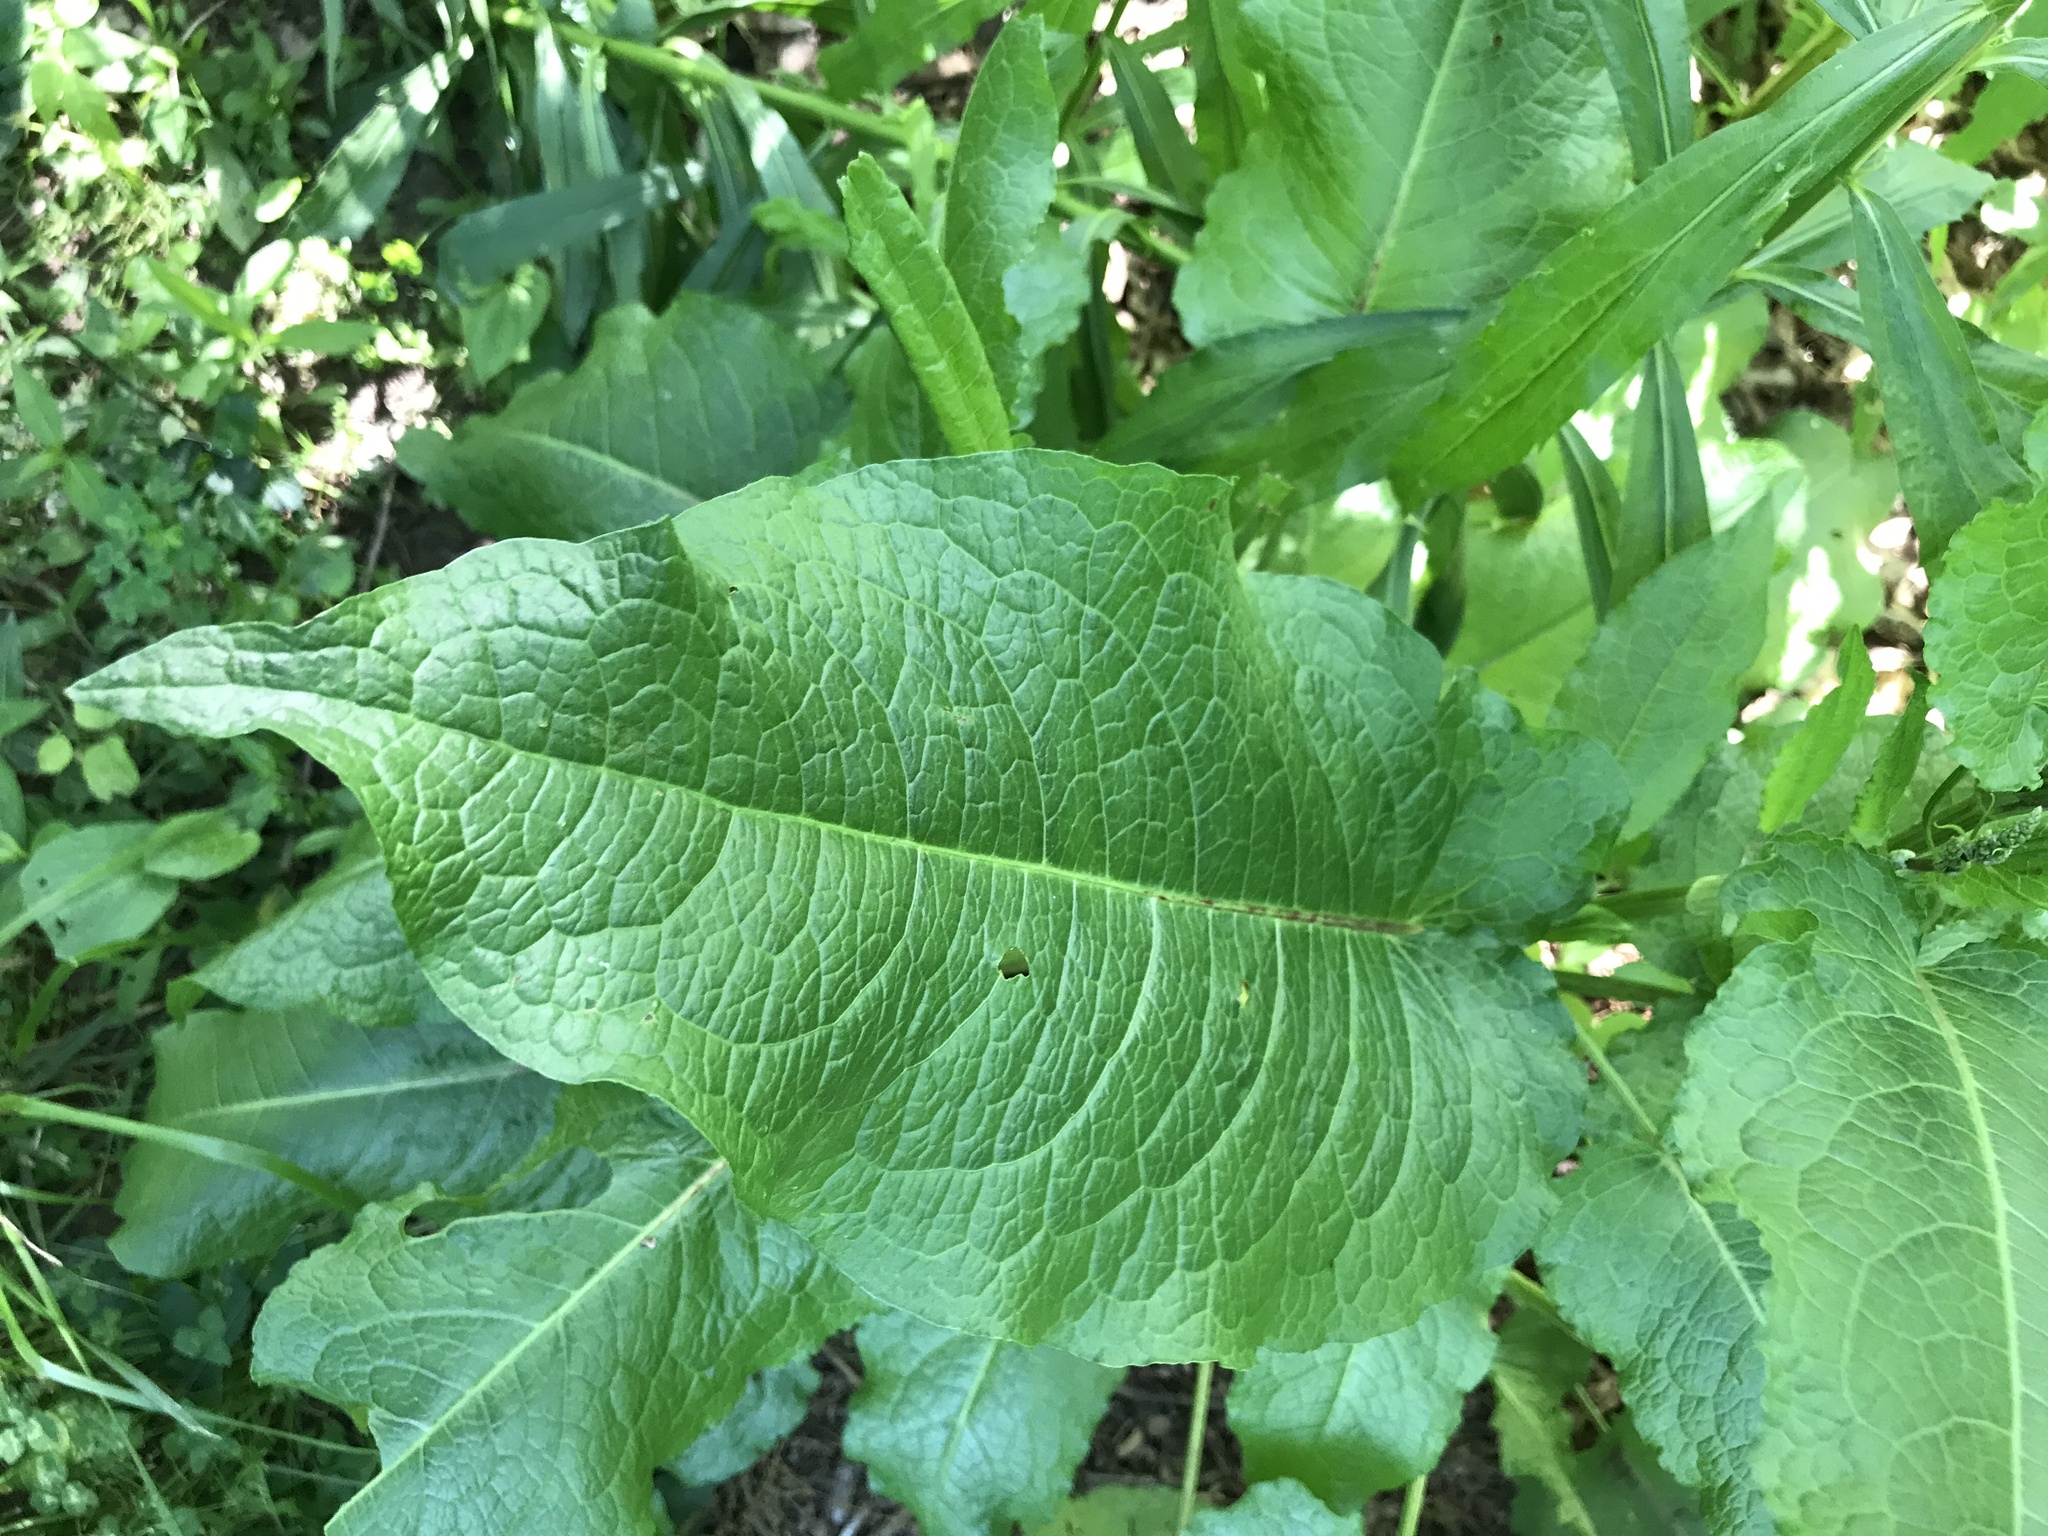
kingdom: Plantae
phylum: Tracheophyta
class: Magnoliopsida
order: Caryophyllales
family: Polygonaceae
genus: Rumex
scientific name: Rumex obtusifolius
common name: Bitter dock
